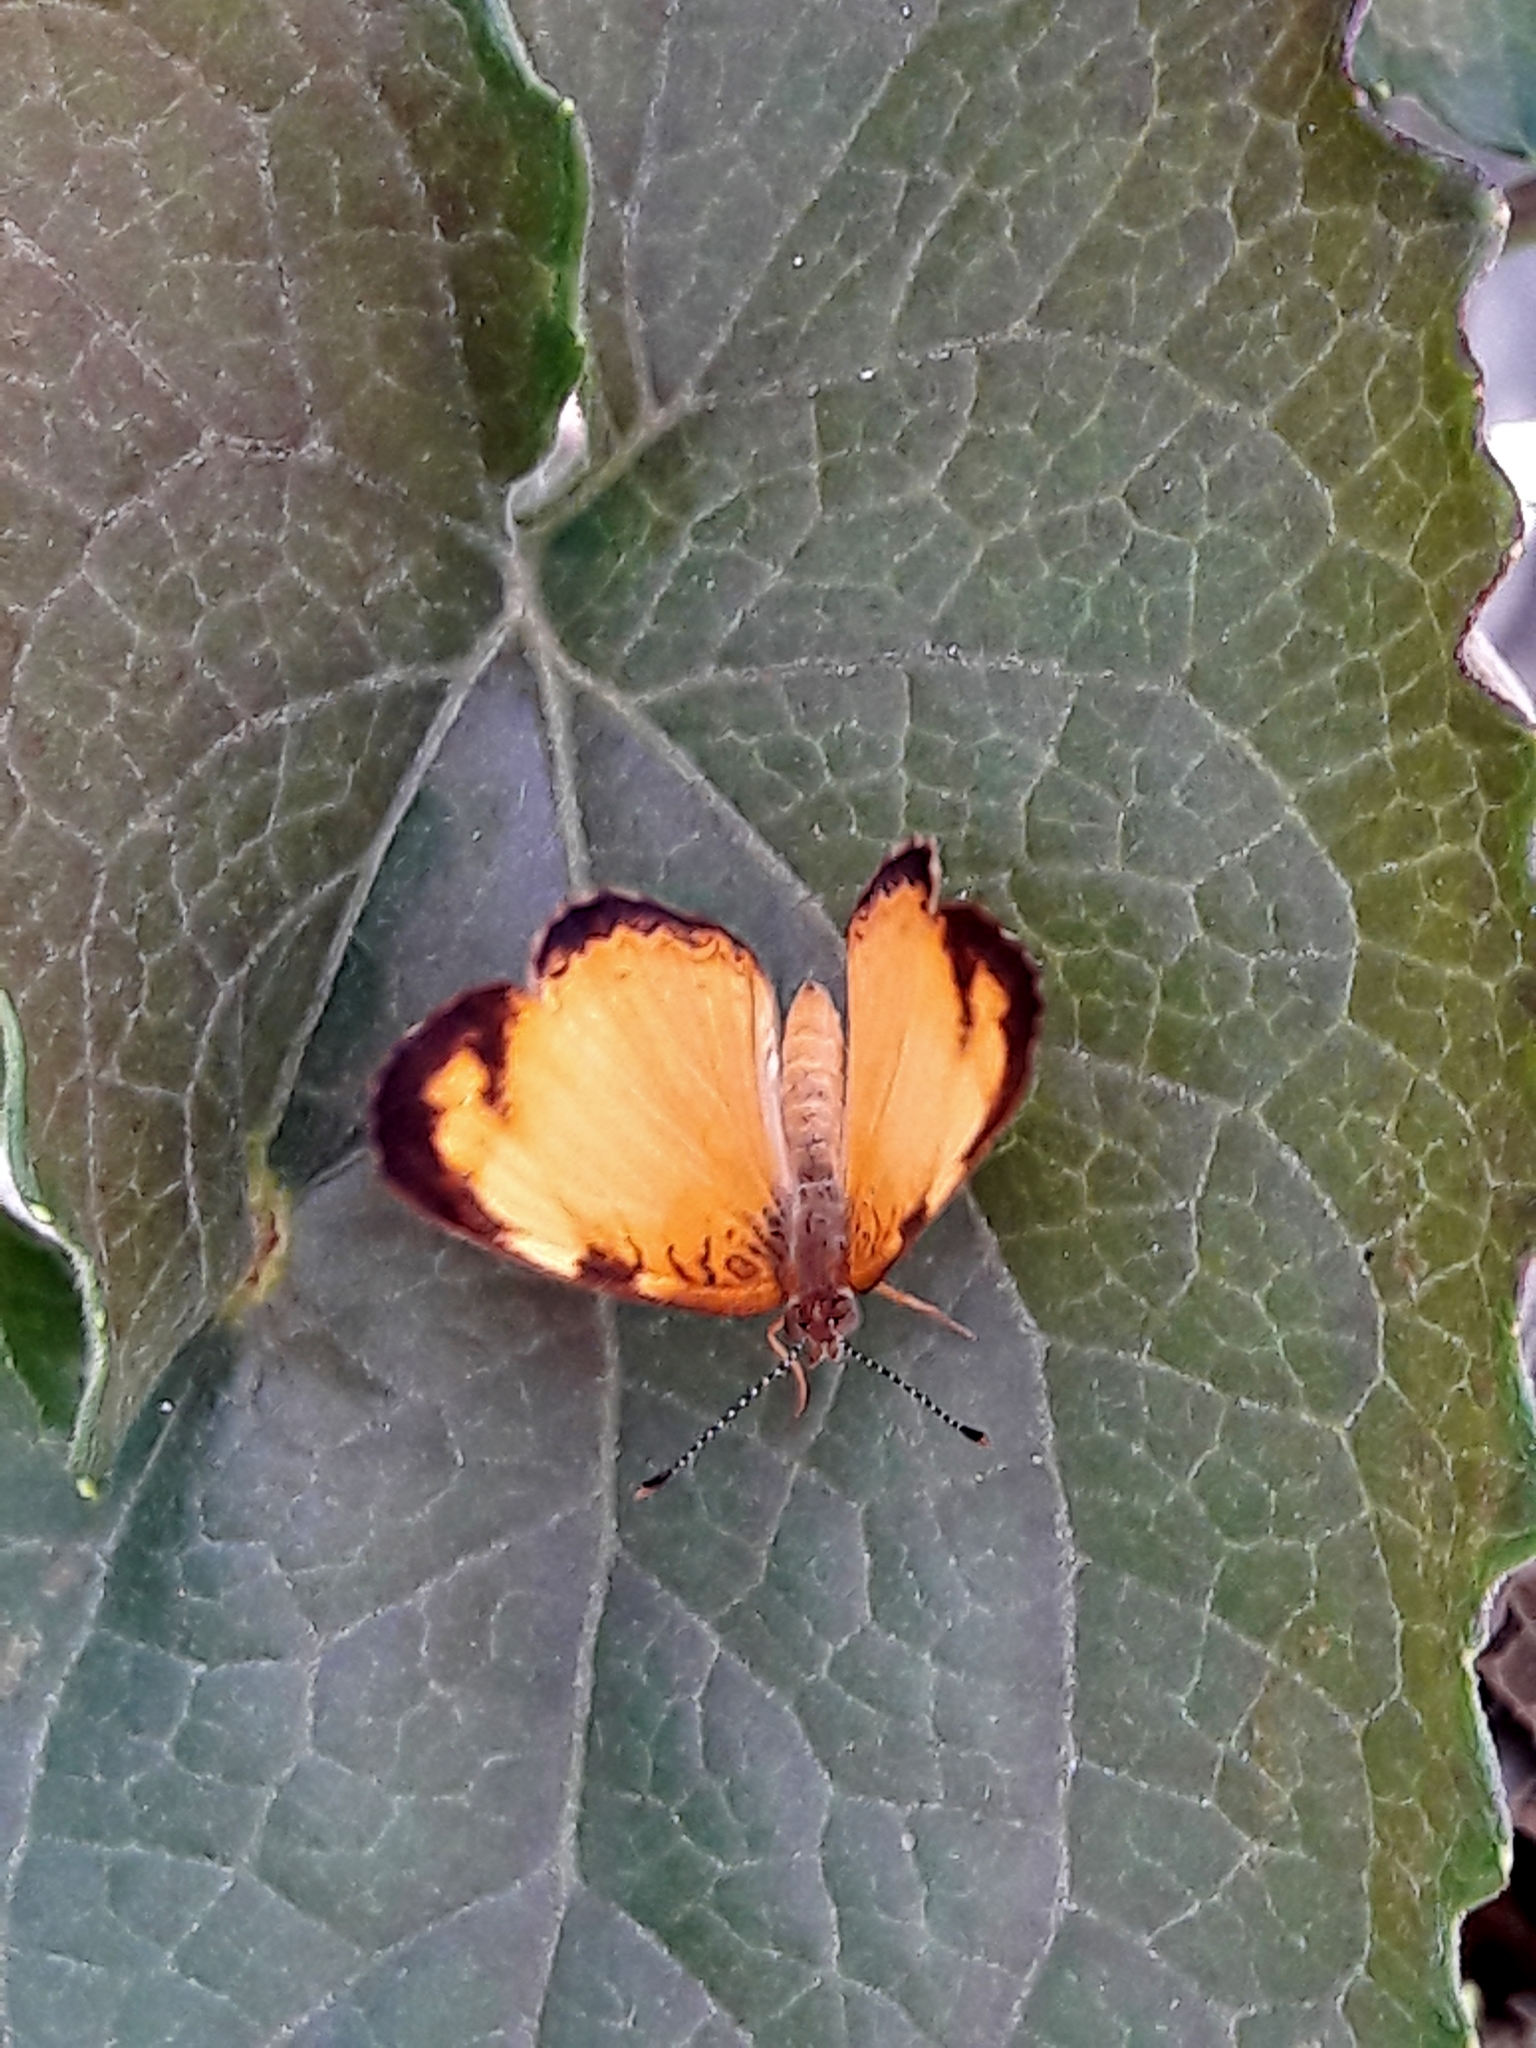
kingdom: Animalia
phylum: Arthropoda
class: Insecta
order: Lepidoptera
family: Nymphalidae
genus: Tegosa
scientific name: Tegosa claudina
